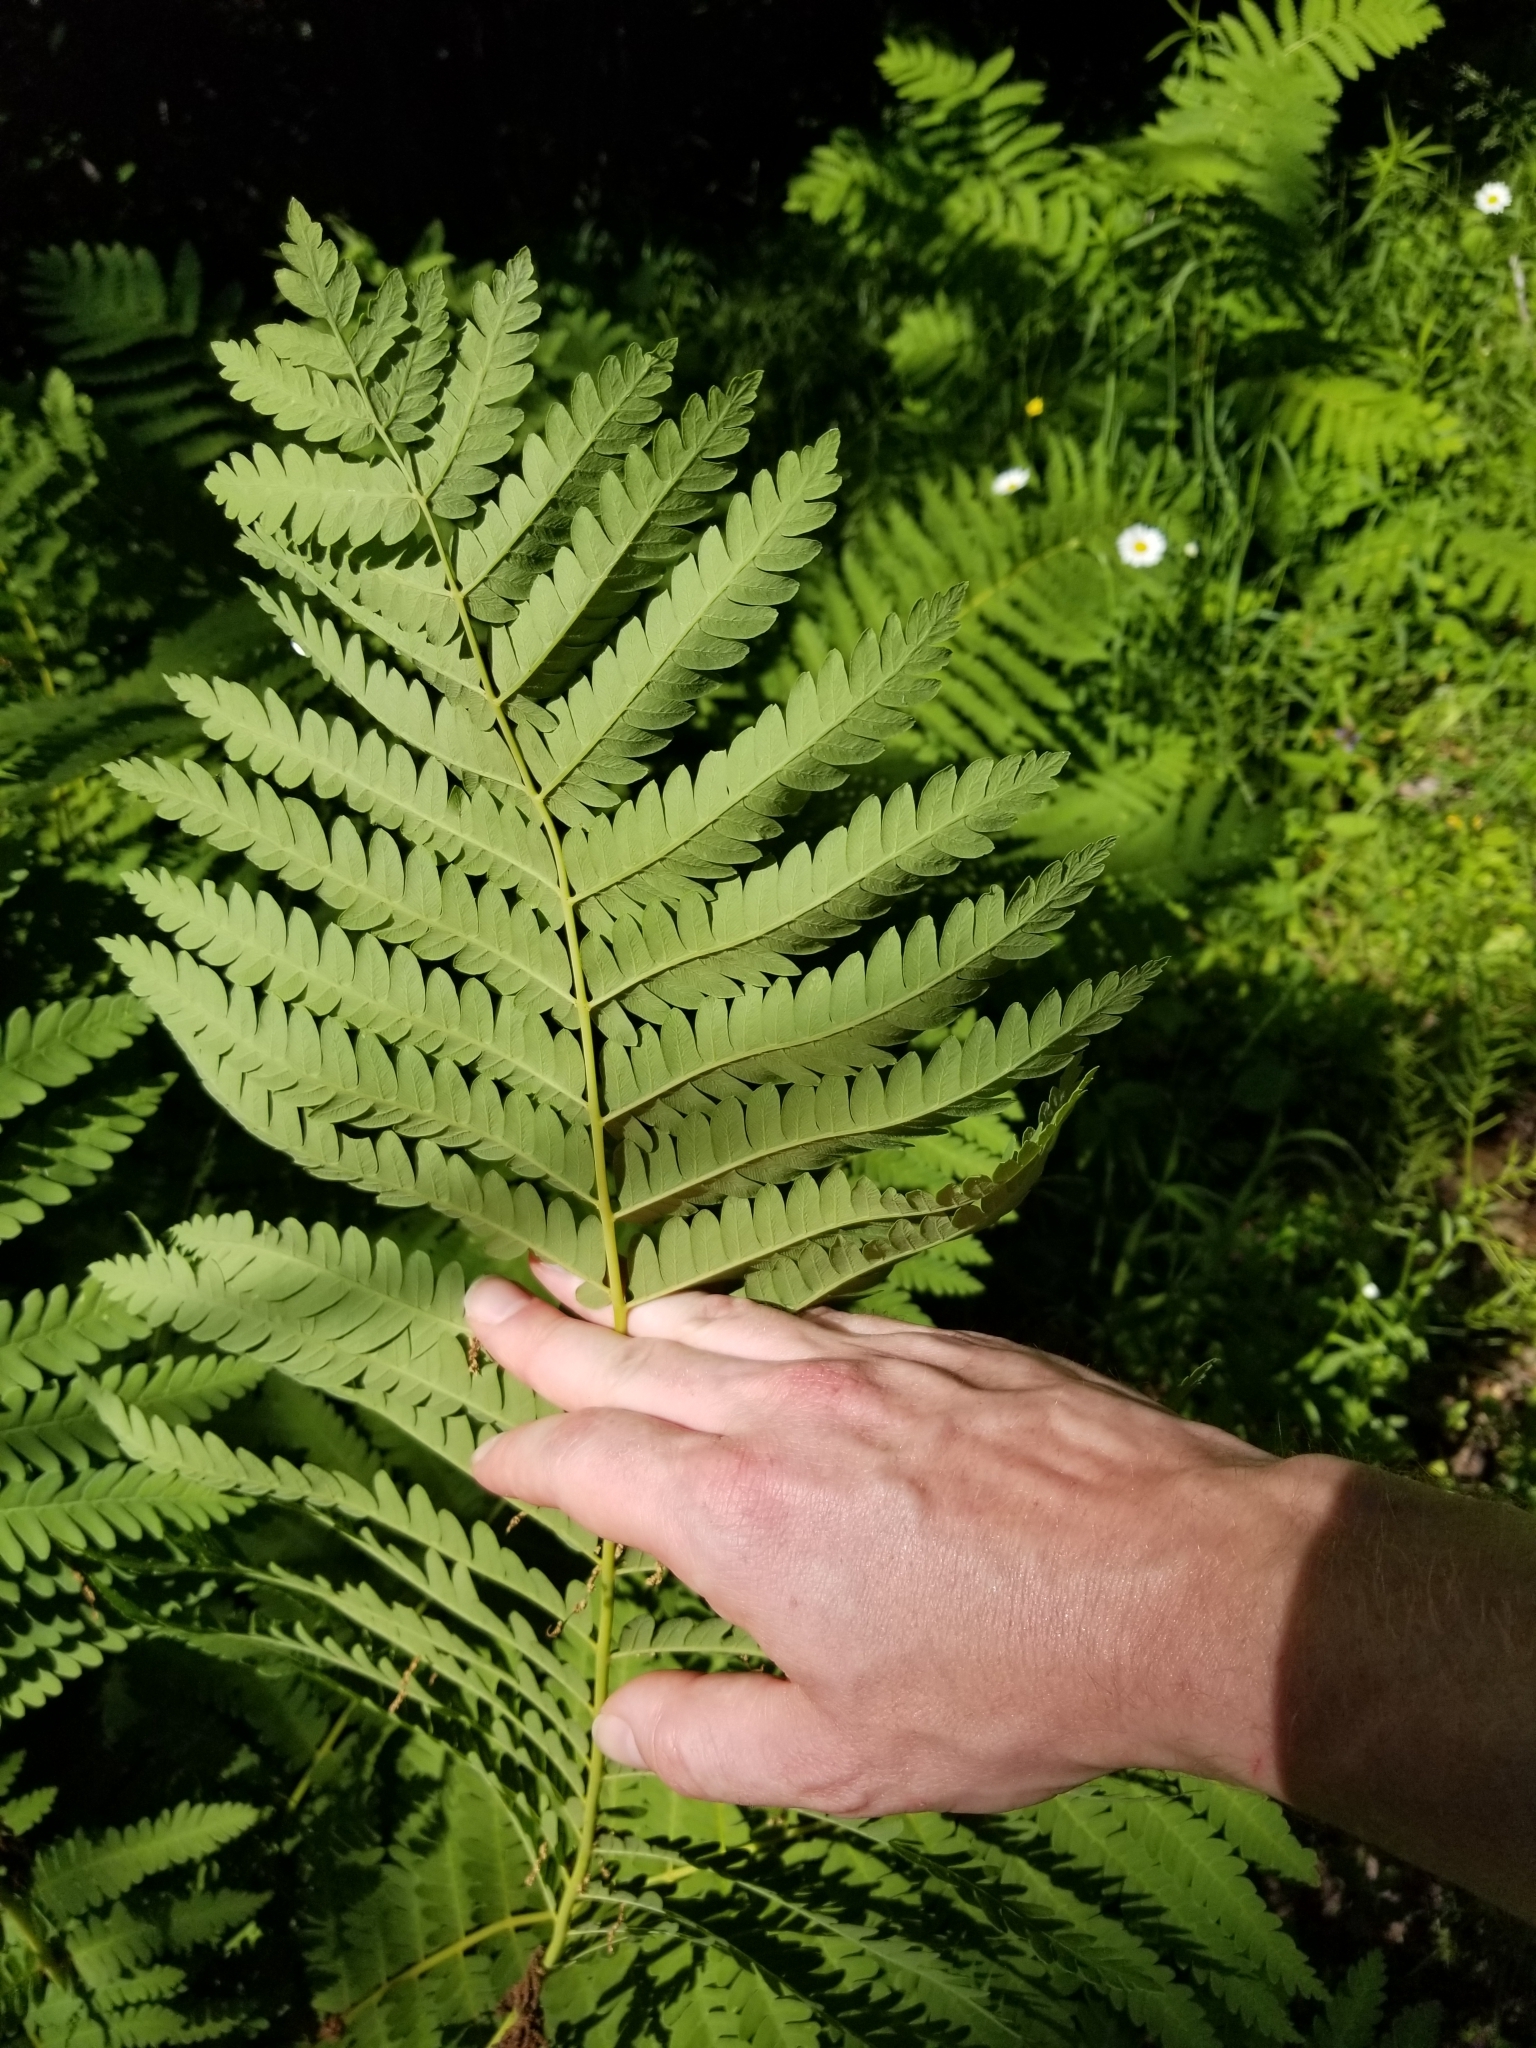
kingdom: Plantae
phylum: Tracheophyta
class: Polypodiopsida
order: Osmundales
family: Osmundaceae
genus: Claytosmunda
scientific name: Claytosmunda claytoniana
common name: Clayton's fern
